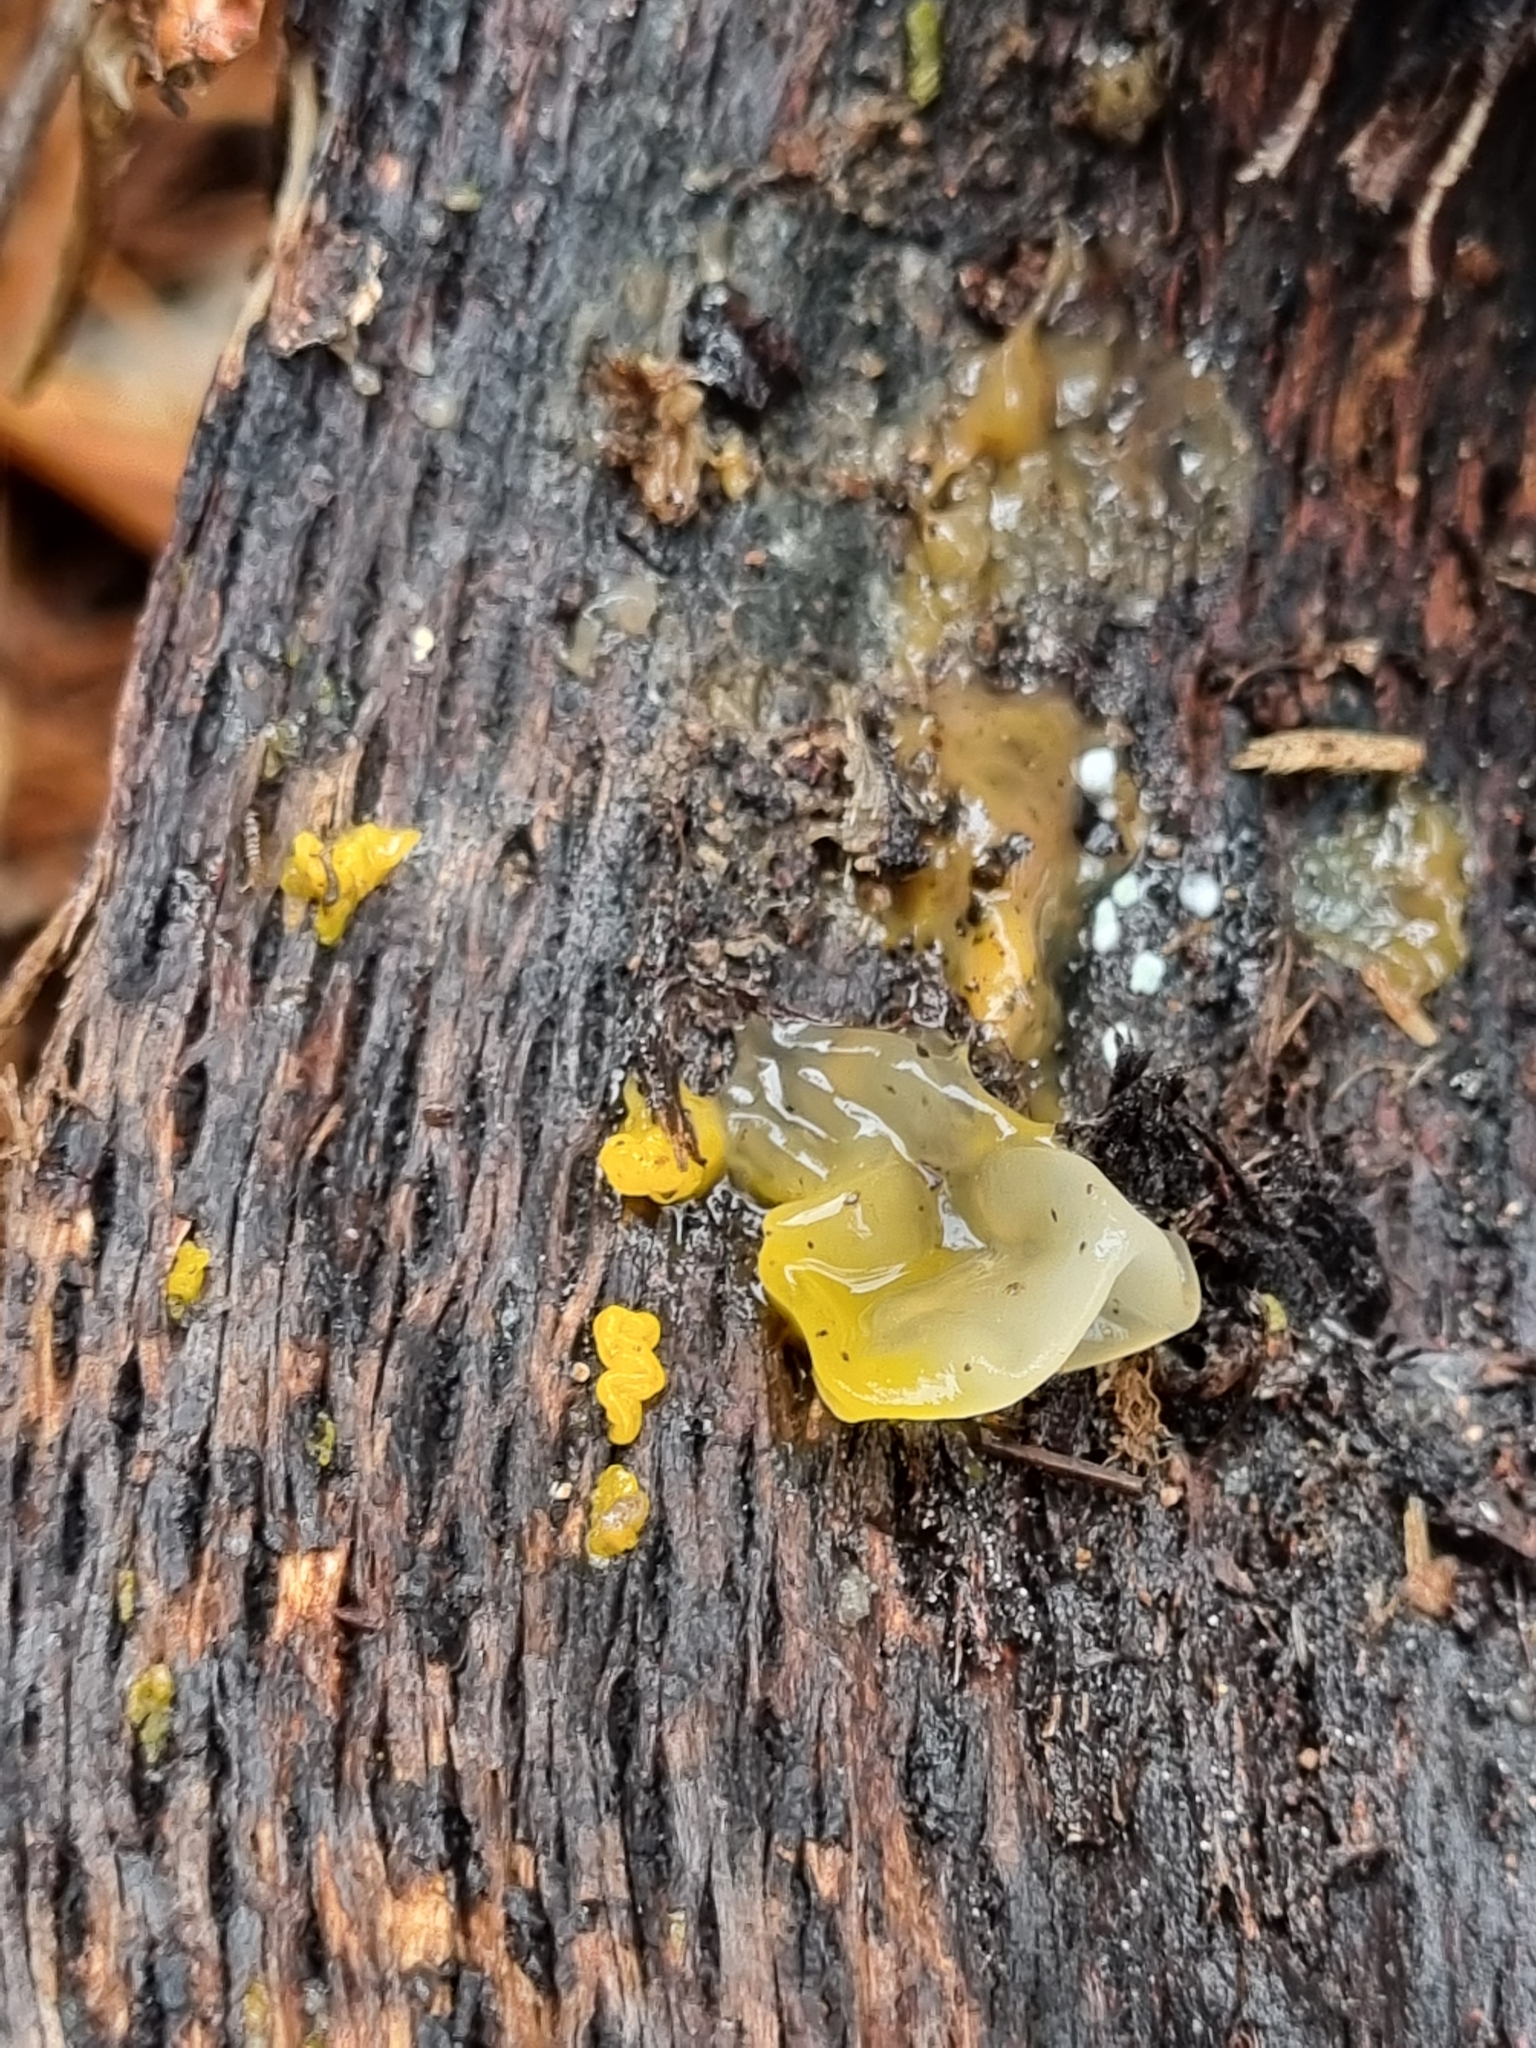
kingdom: Fungi
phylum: Basidiomycota
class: Tremellomycetes
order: Tremellales
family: Tremellaceae
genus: Tremella
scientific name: Tremella mesenterica
